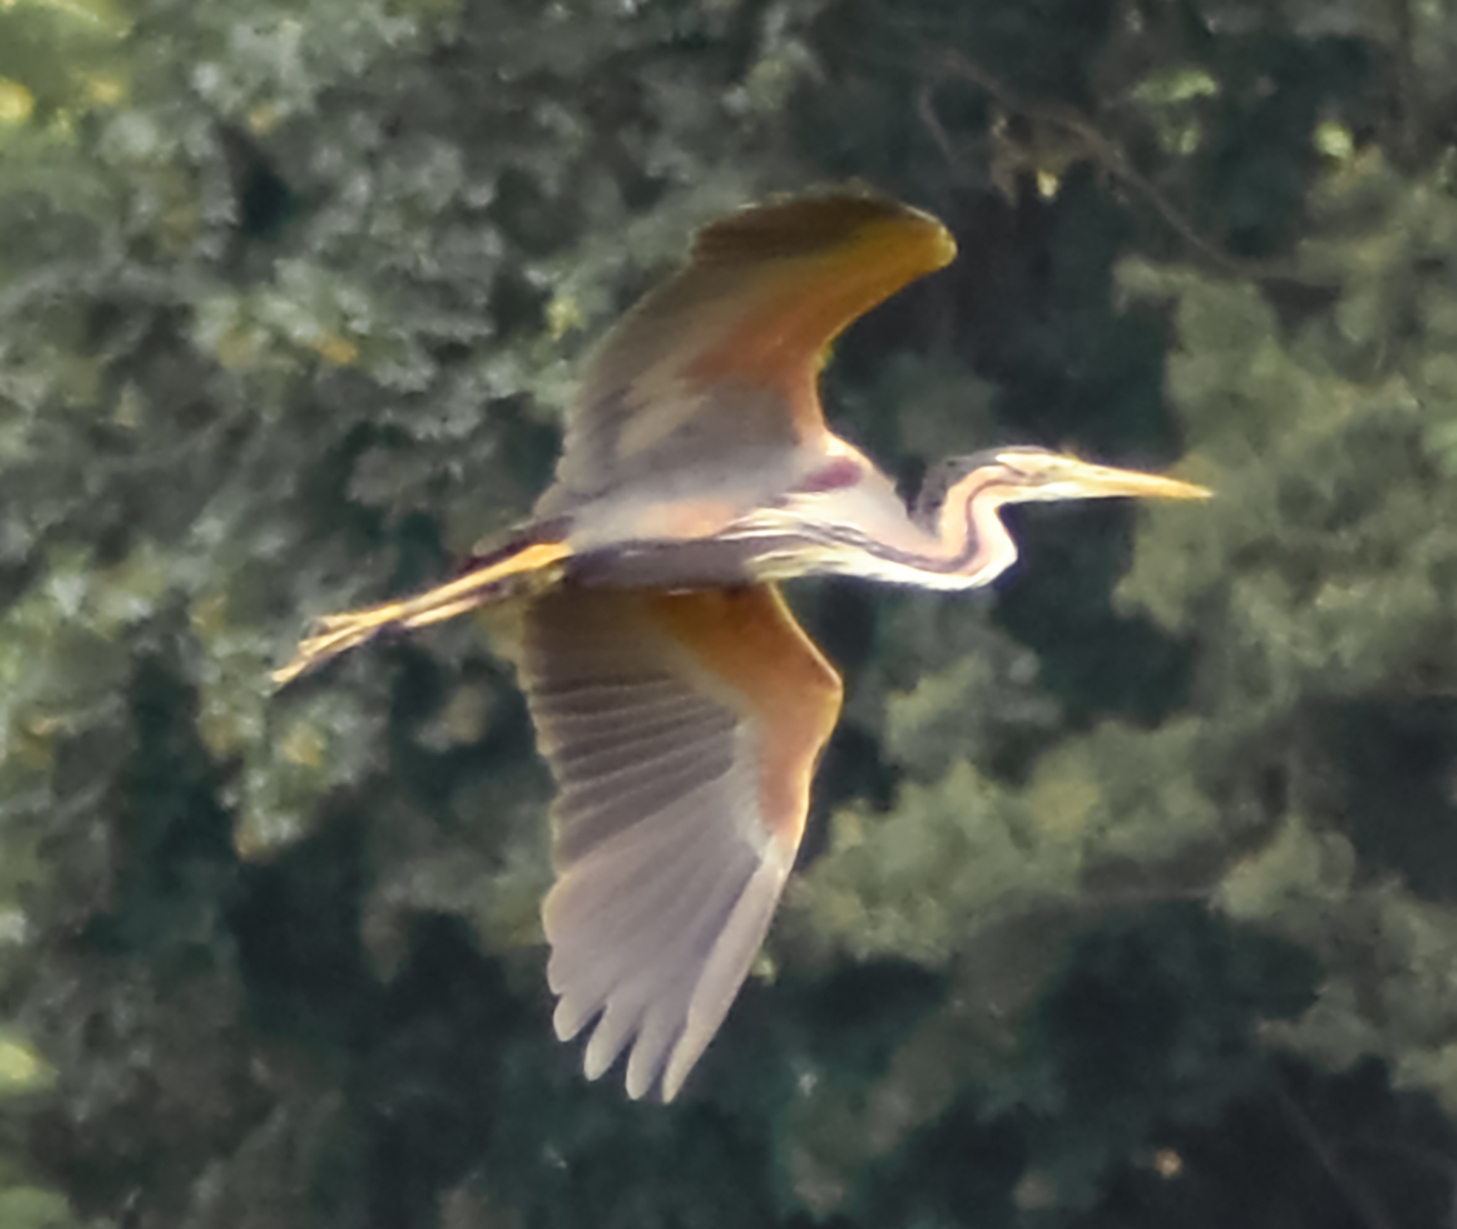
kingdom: Animalia
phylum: Chordata
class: Aves
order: Pelecaniformes
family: Ardeidae
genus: Ardea
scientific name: Ardea purpurea
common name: Purple heron
